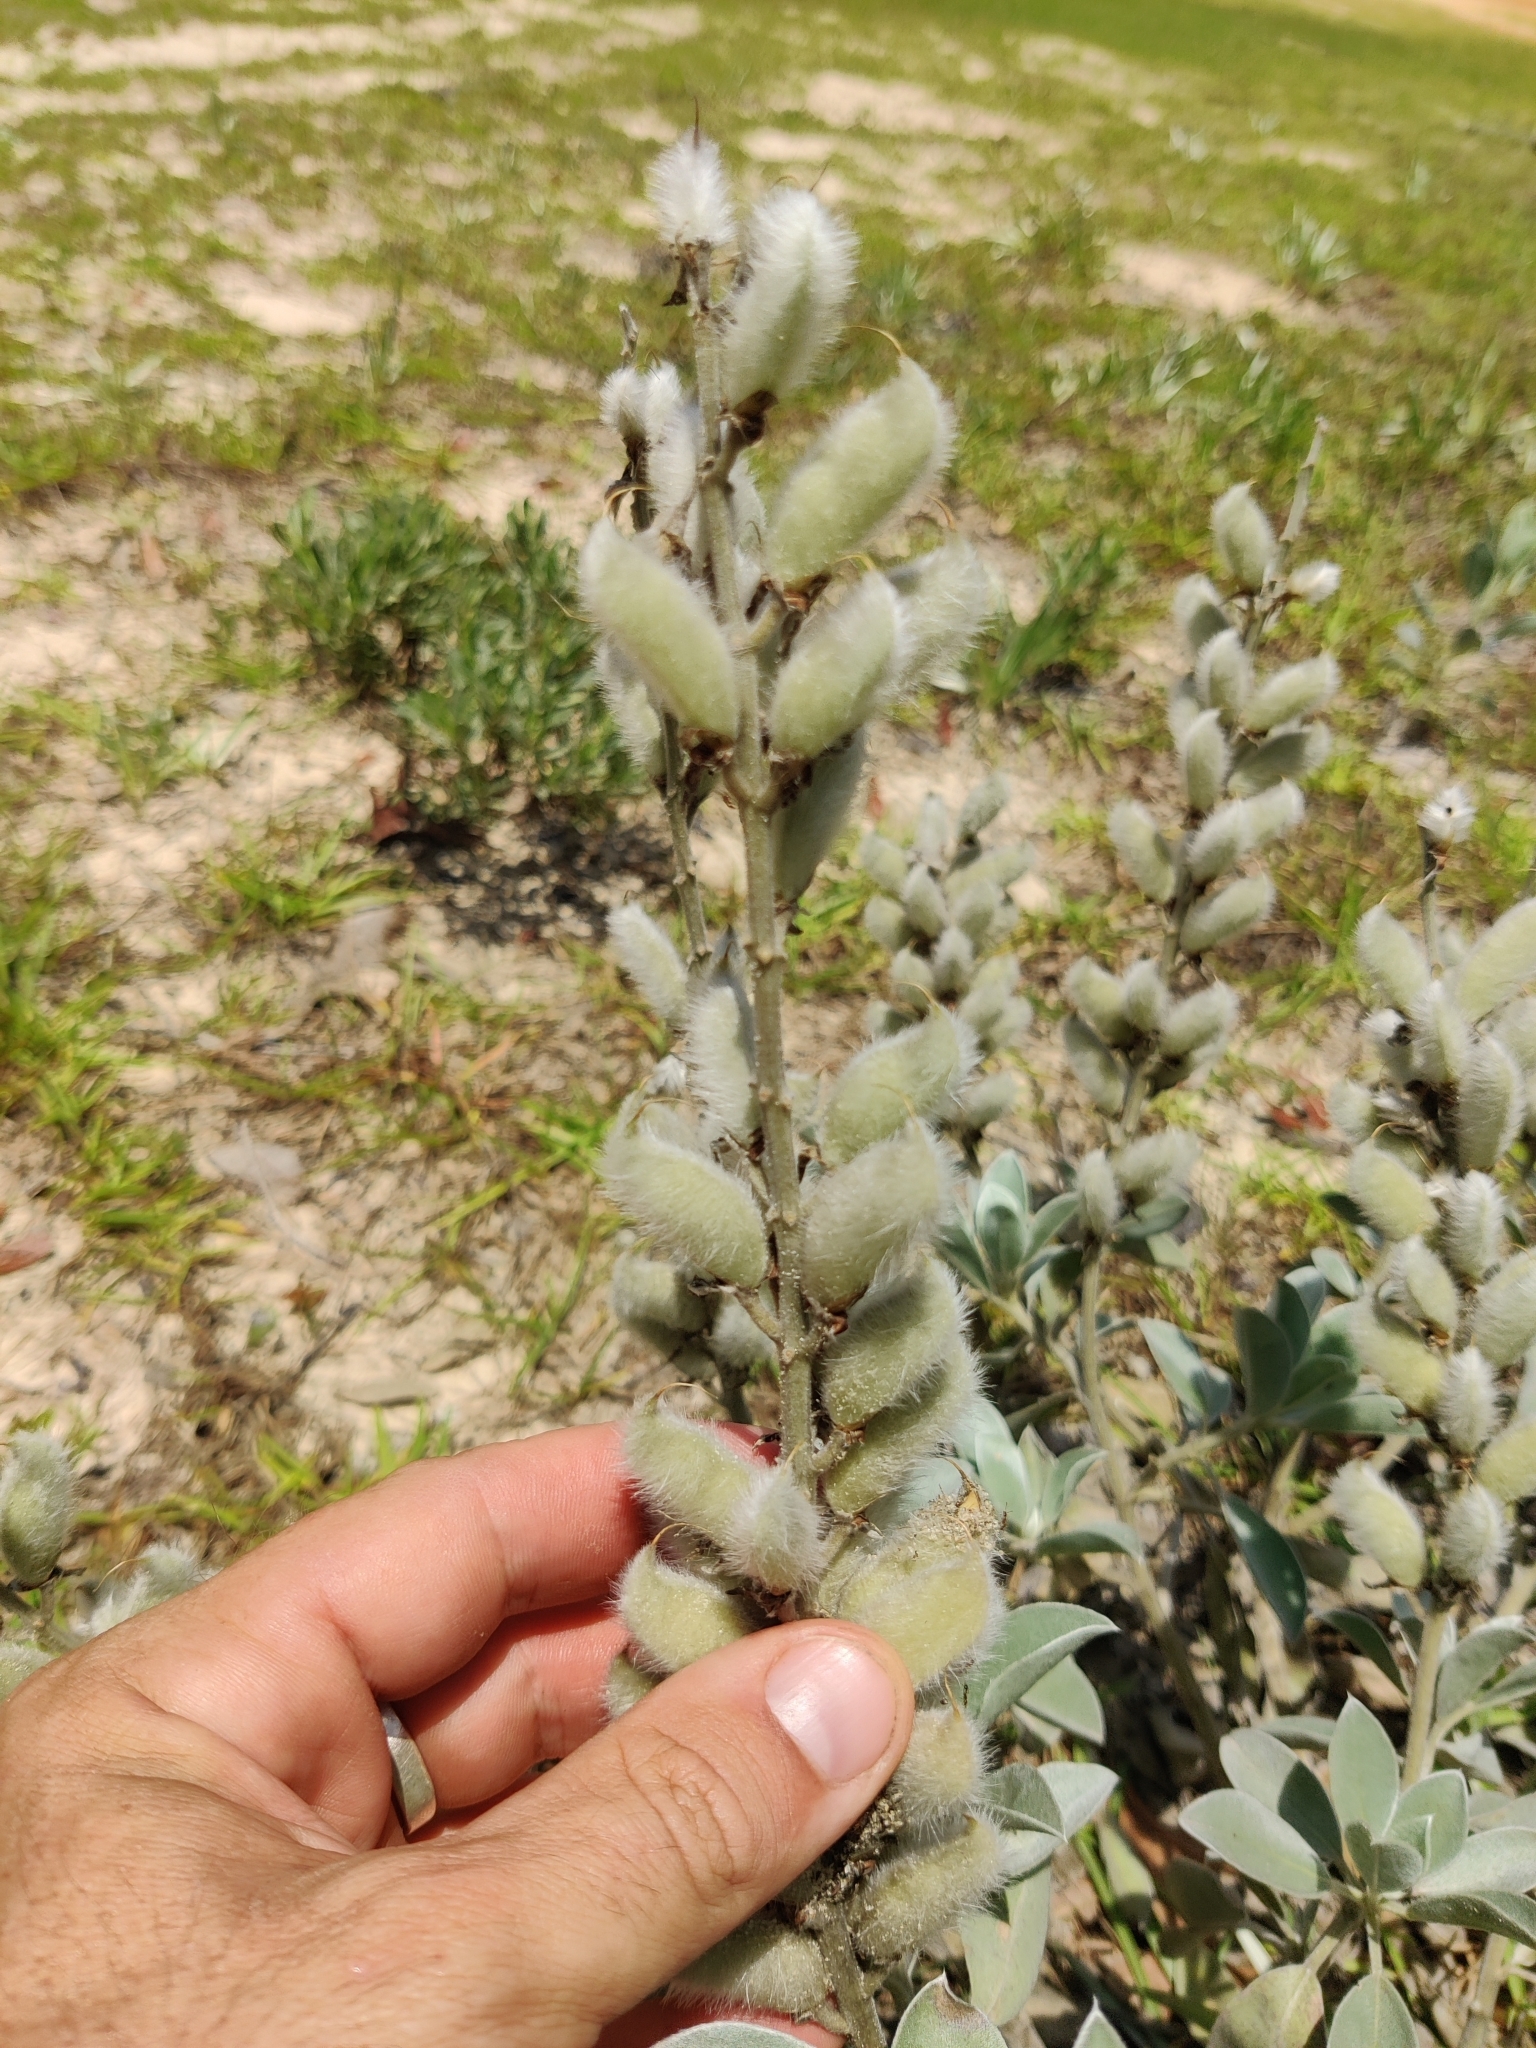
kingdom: Plantae
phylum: Tracheophyta
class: Magnoliopsida
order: Fabales
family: Fabaceae
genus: Lupinus
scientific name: Lupinus westianus
